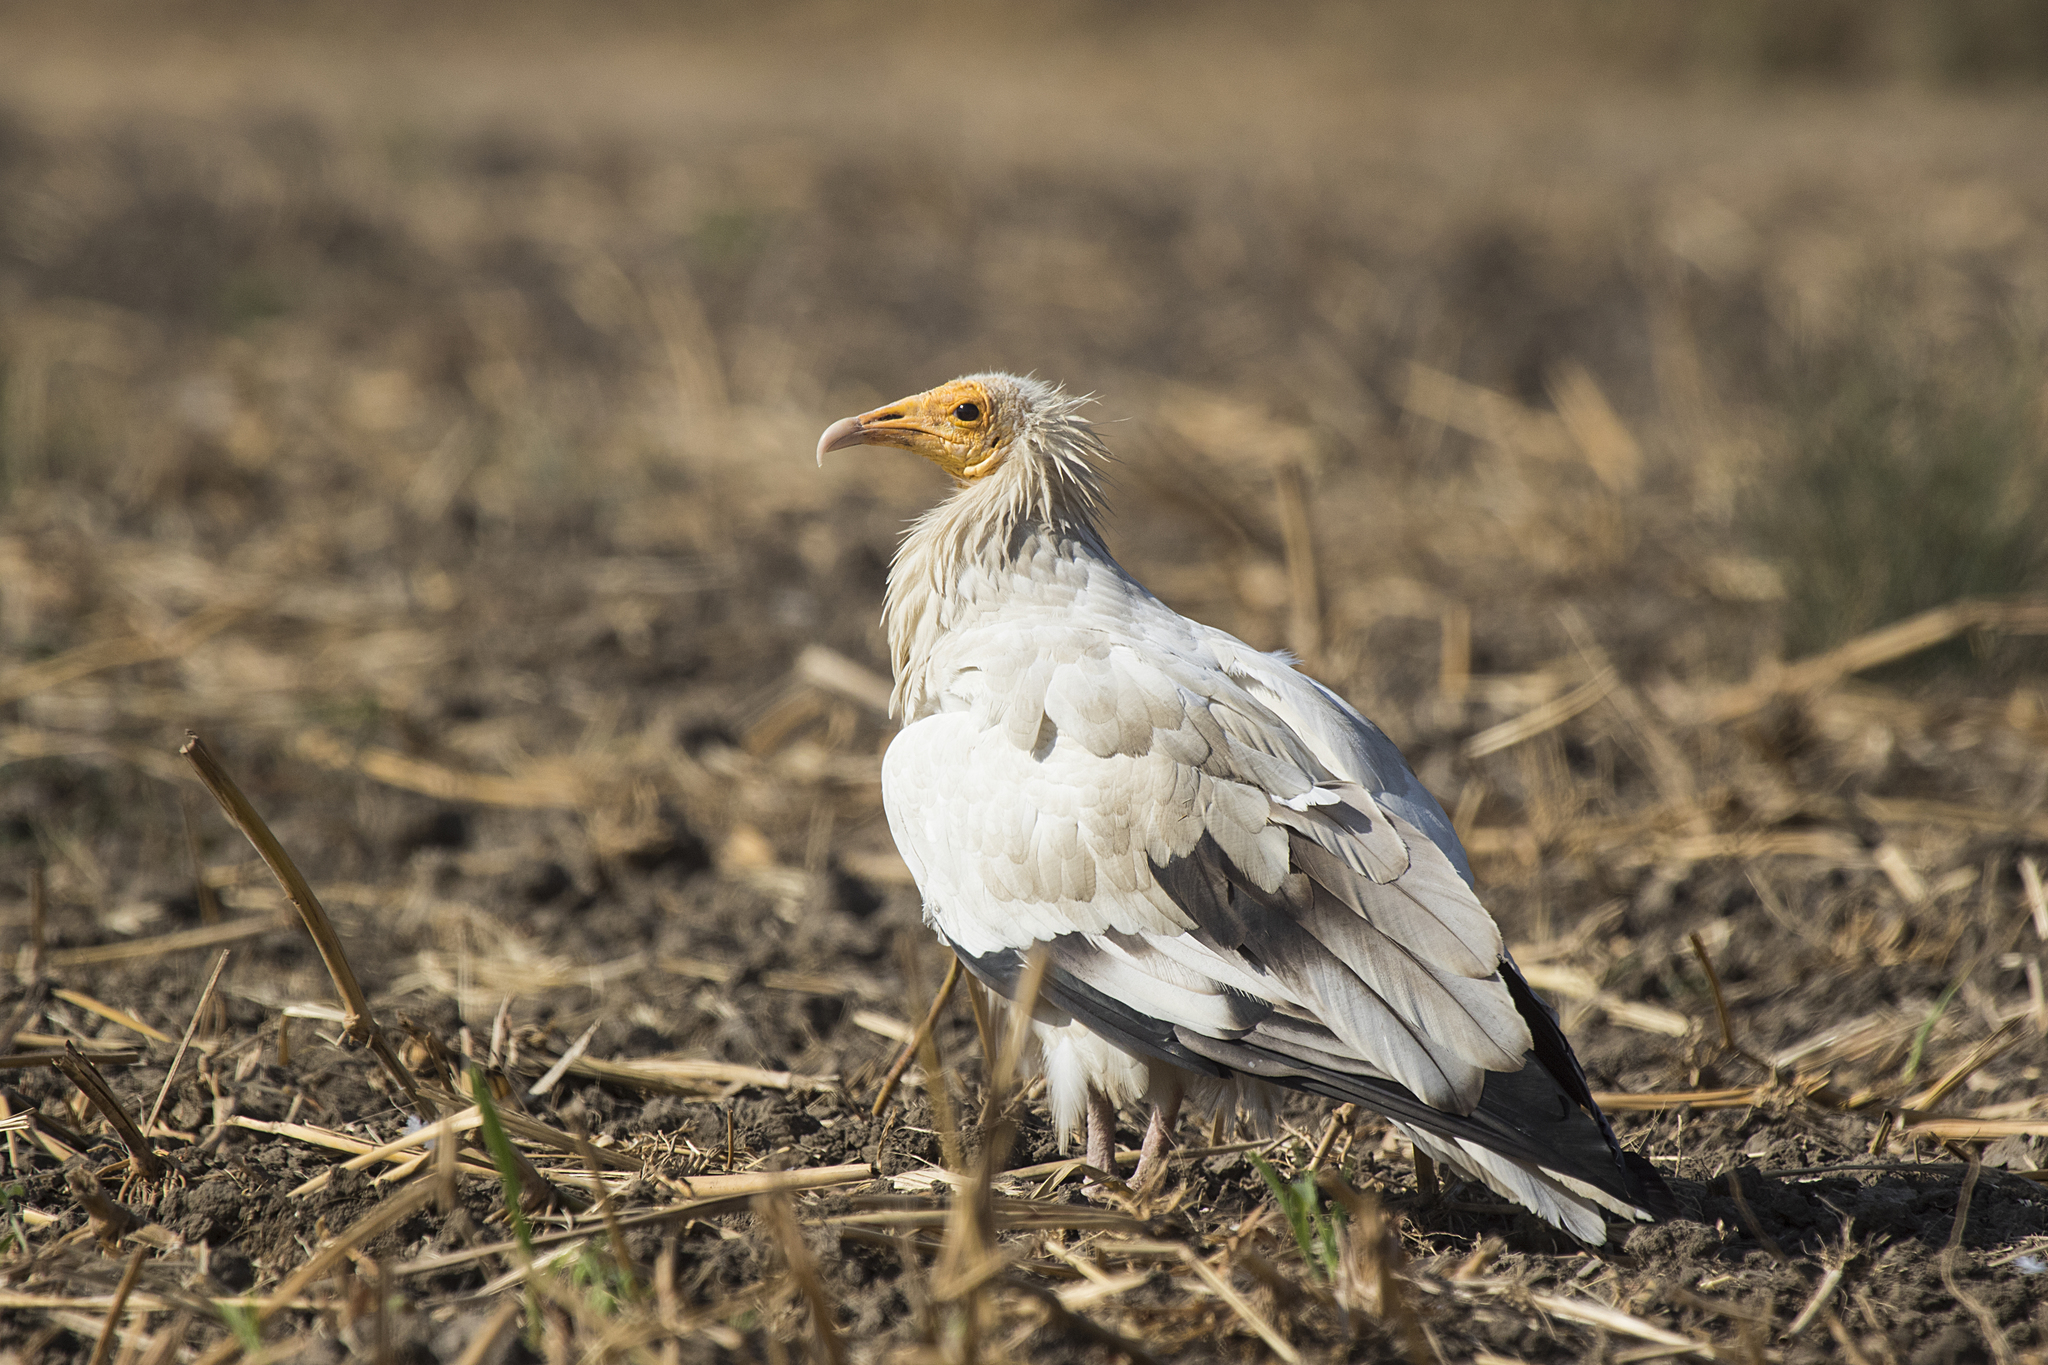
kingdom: Animalia
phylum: Chordata
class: Aves
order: Accipitriformes
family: Accipitridae
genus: Neophron
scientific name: Neophron percnopterus
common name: Egyptian vulture
